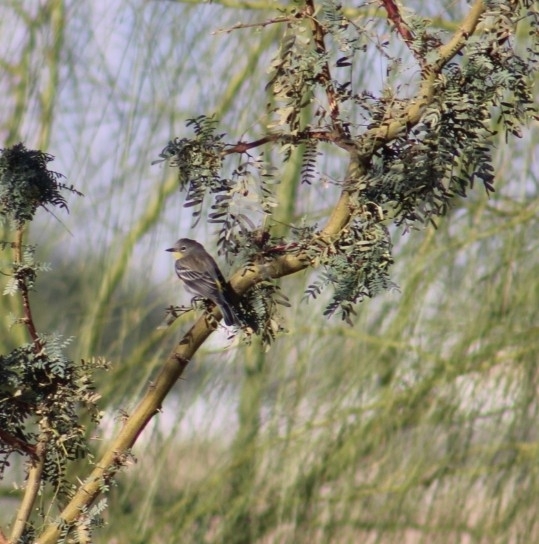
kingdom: Animalia
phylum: Chordata
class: Aves
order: Passeriformes
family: Parulidae
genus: Setophaga
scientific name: Setophaga coronata
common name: Myrtle warbler
